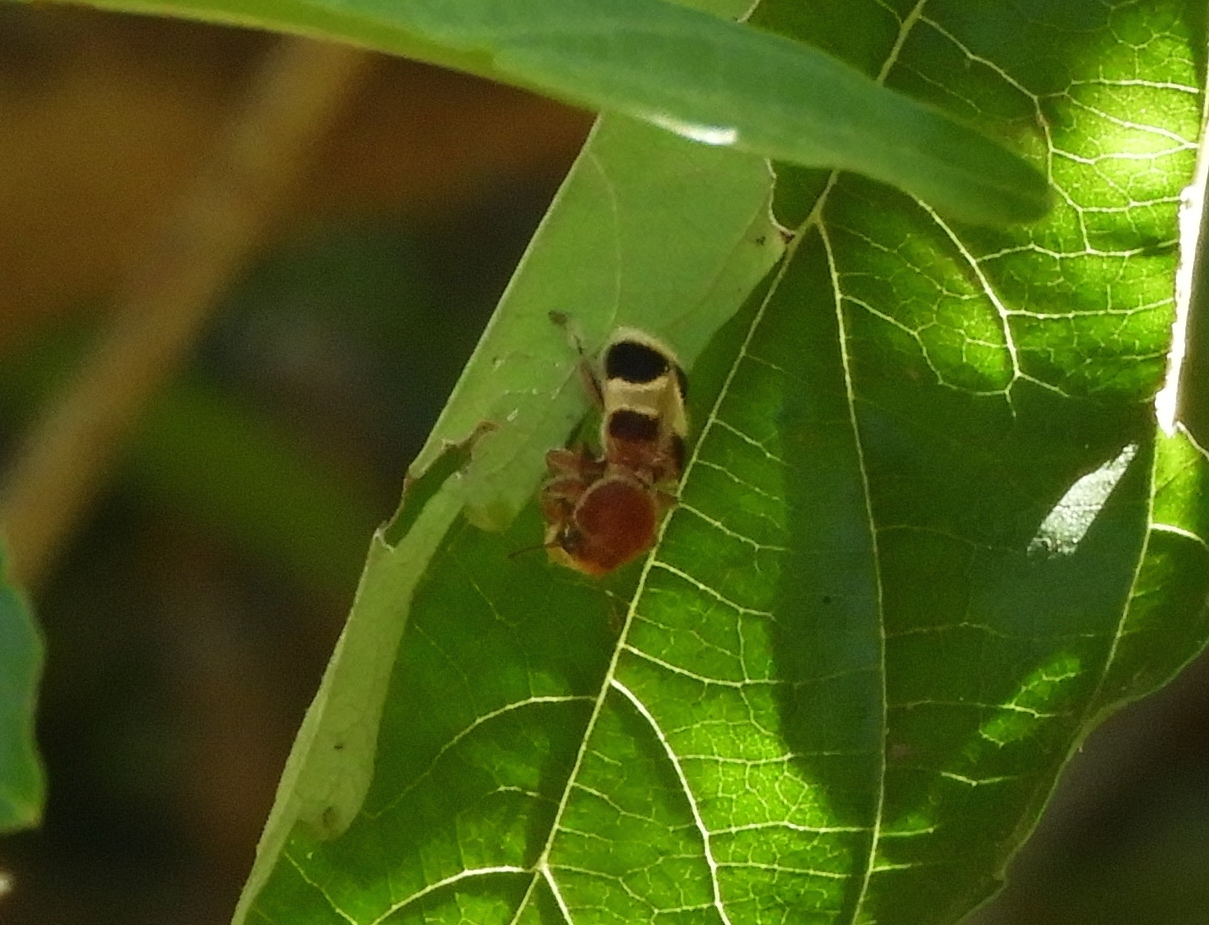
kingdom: Animalia
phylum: Arthropoda
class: Insecta
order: Coleoptera
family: Cleridae
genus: Enoclerus
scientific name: Enoclerus quadriguttatus
